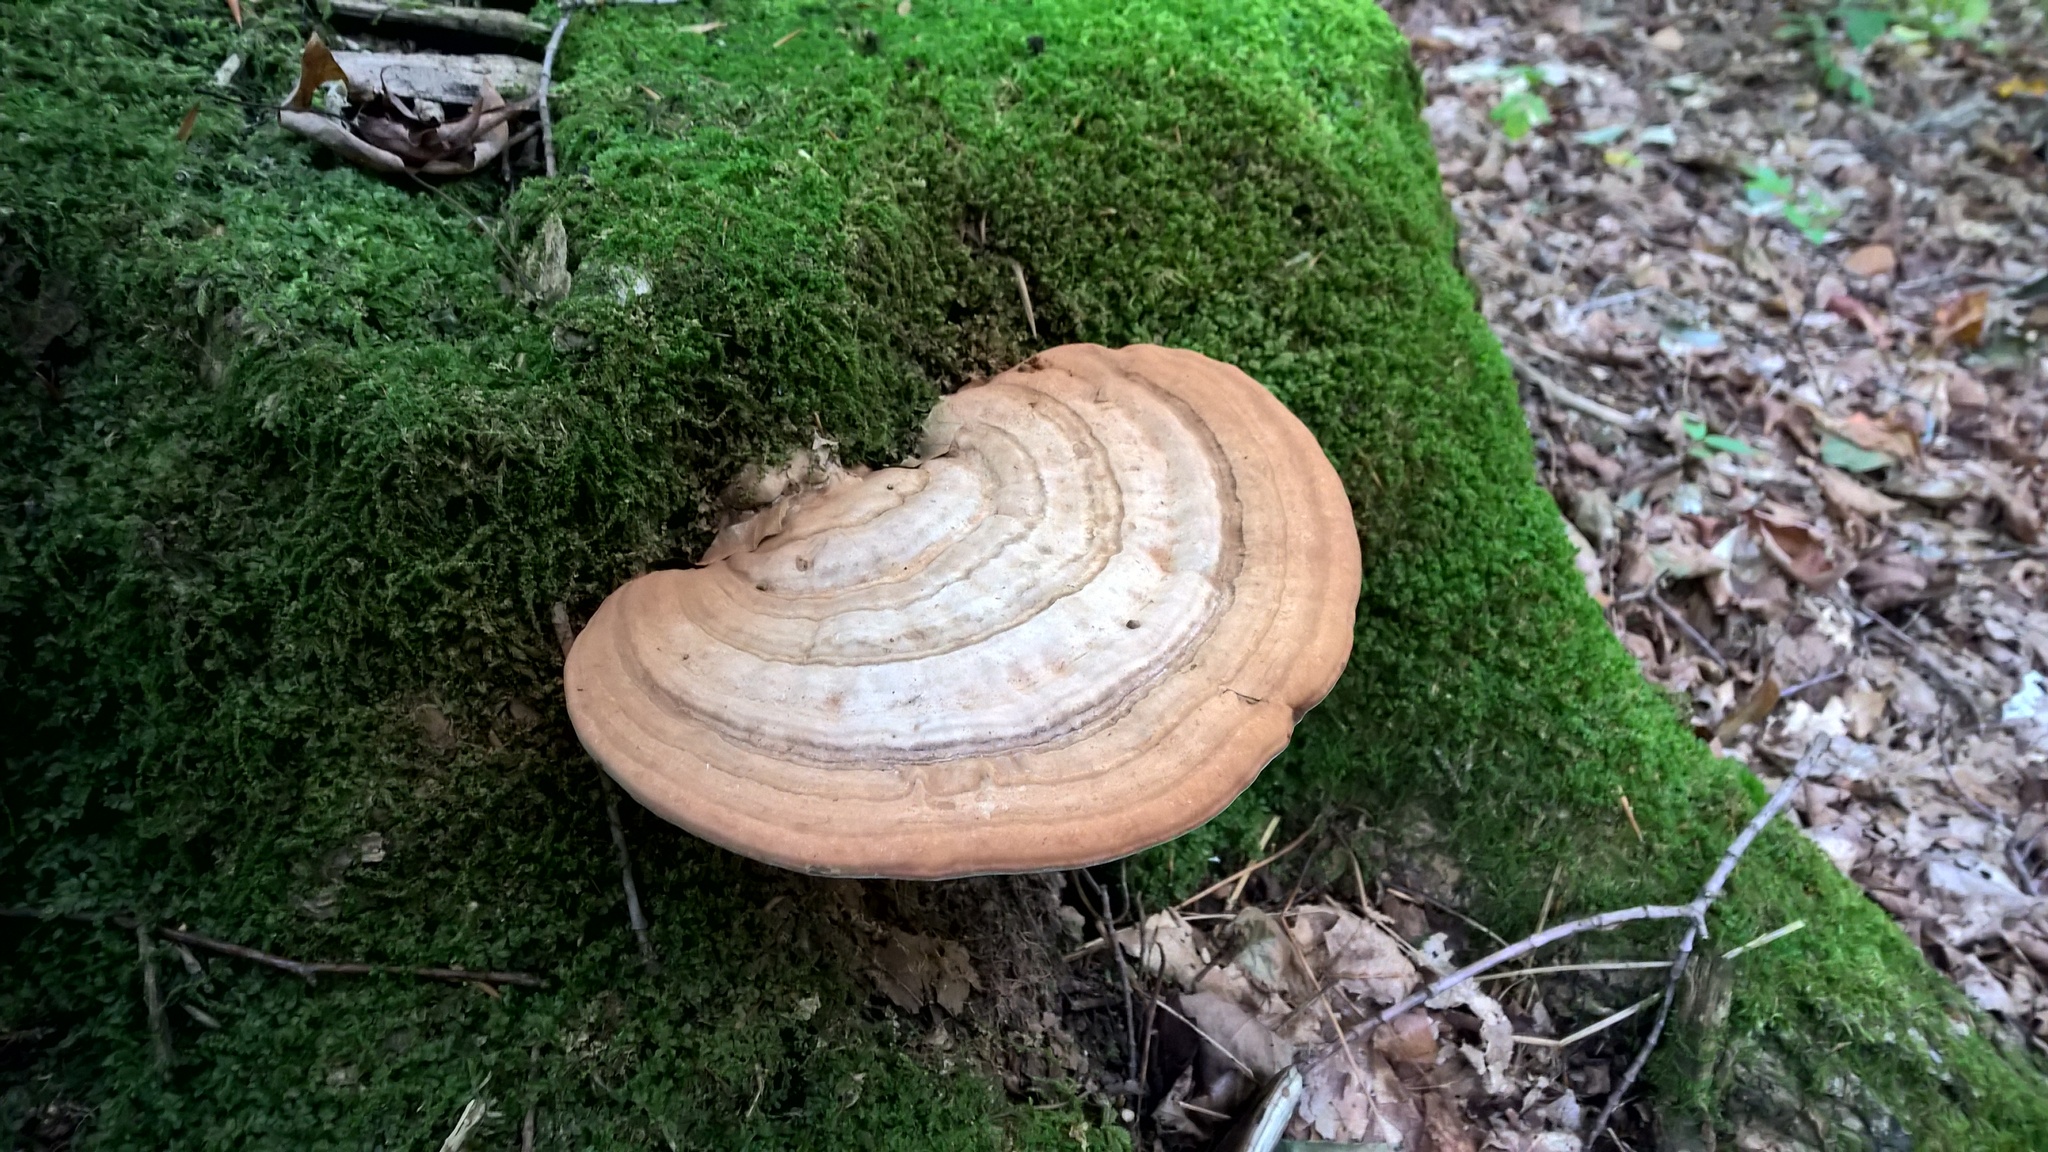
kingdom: Fungi
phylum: Basidiomycota
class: Agaricomycetes
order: Polyporales
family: Polyporaceae
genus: Ganoderma
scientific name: Ganoderma applanatum
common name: Artist's bracket
